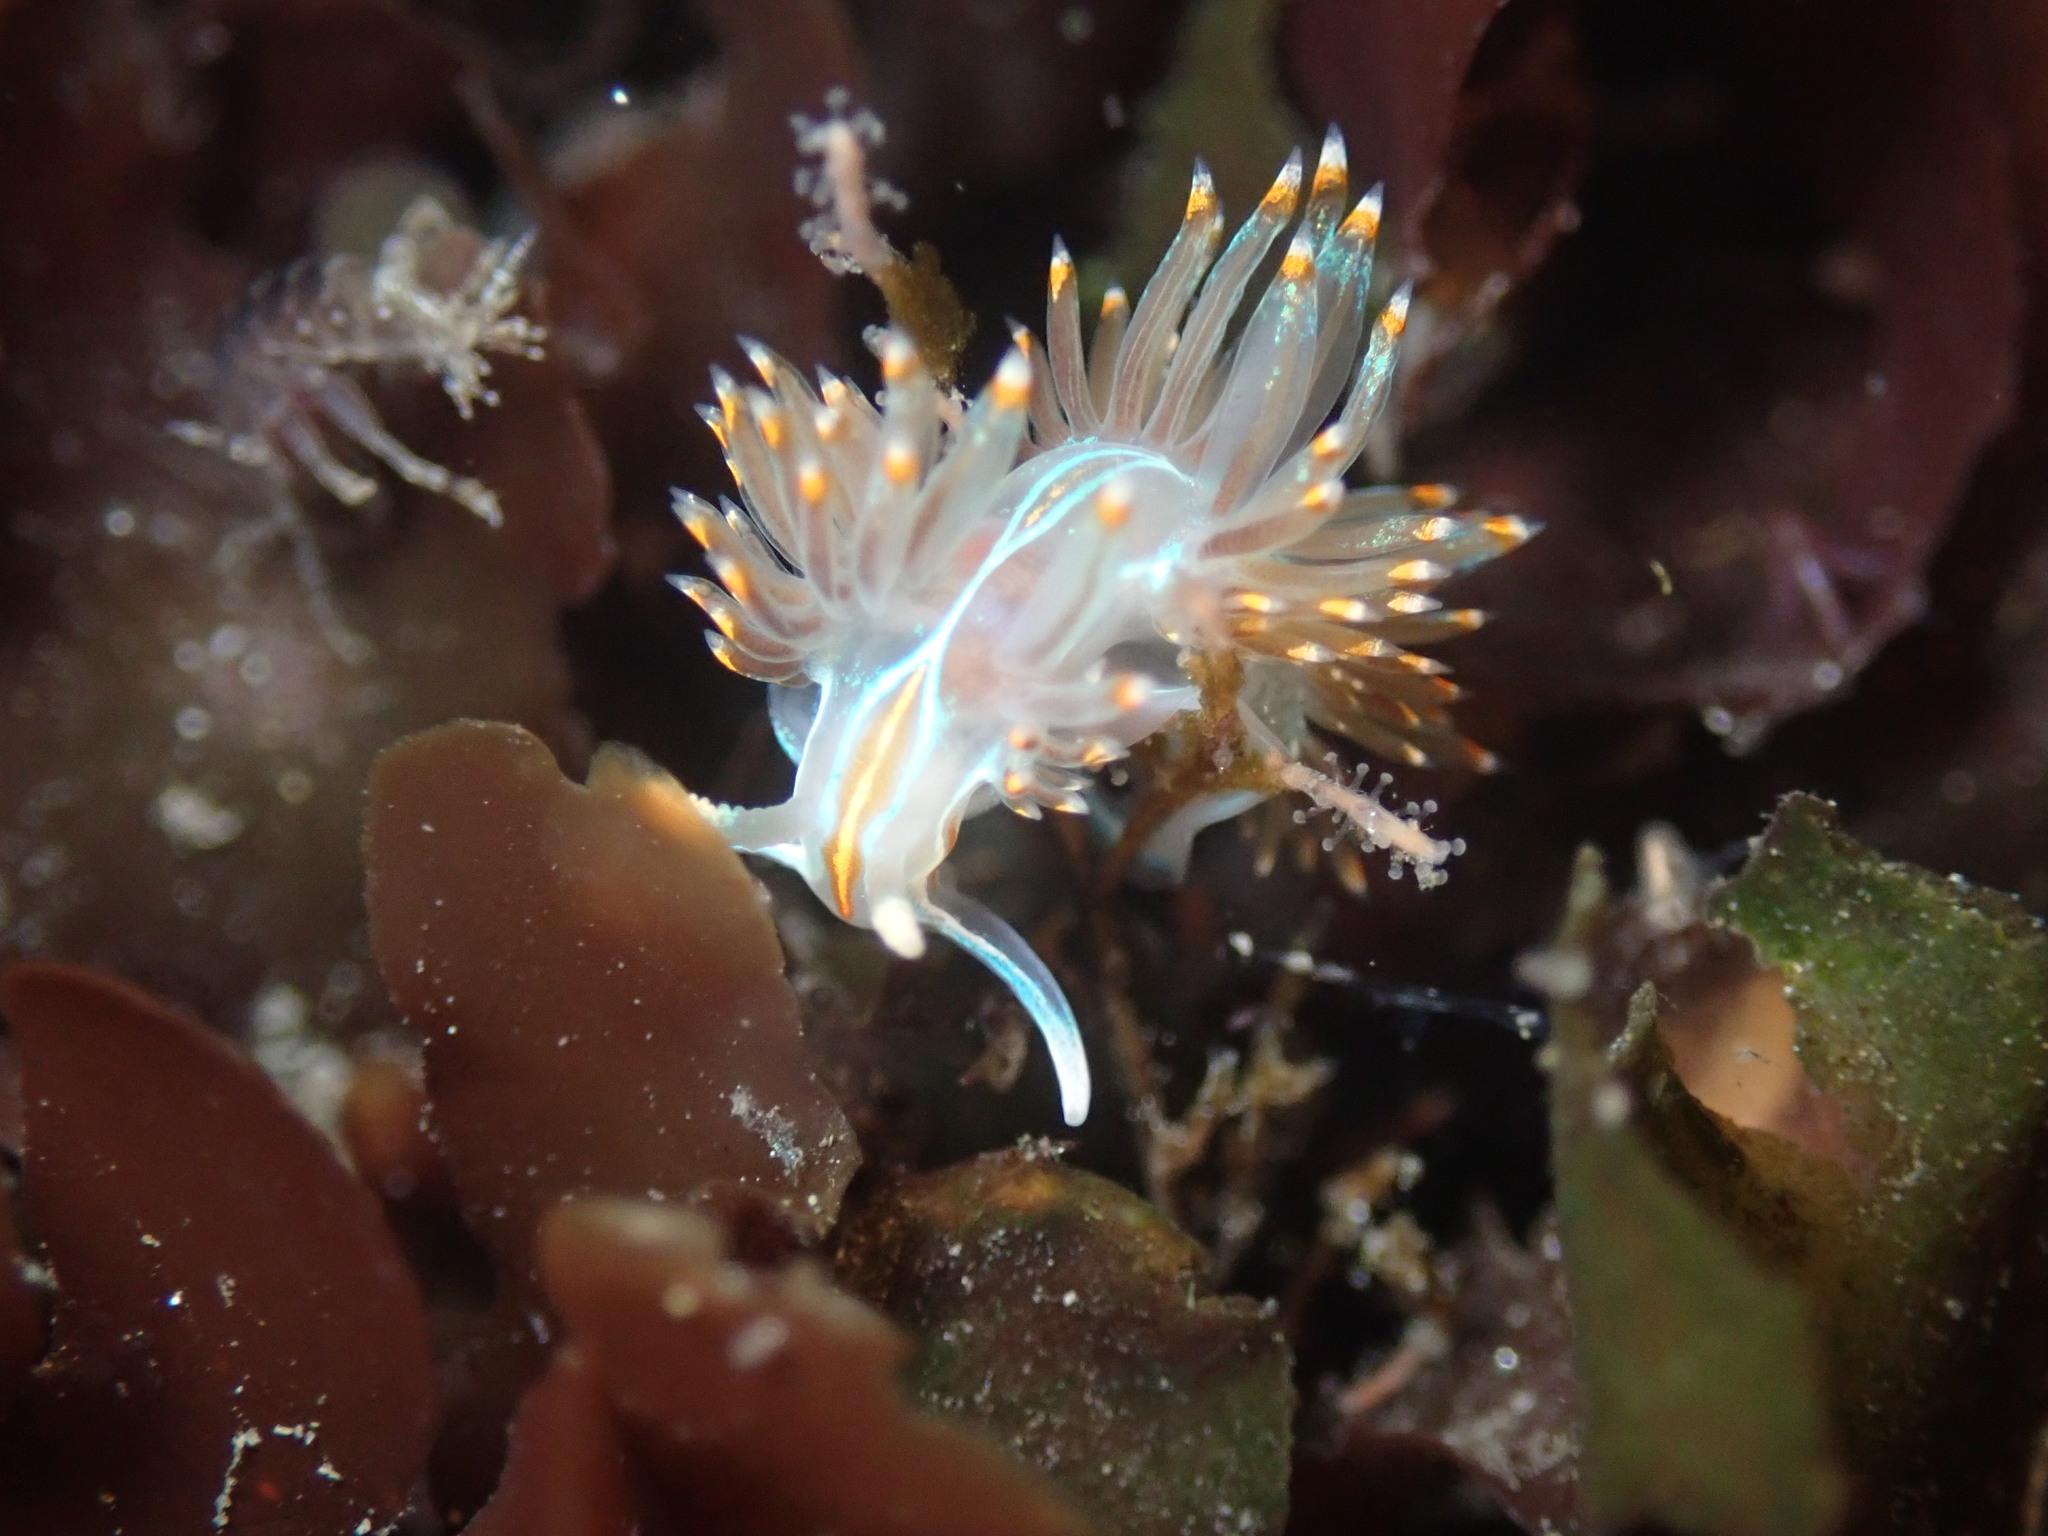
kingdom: Animalia
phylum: Mollusca
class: Gastropoda
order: Nudibranchia
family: Myrrhinidae
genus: Hermissenda
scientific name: Hermissenda opalescens
